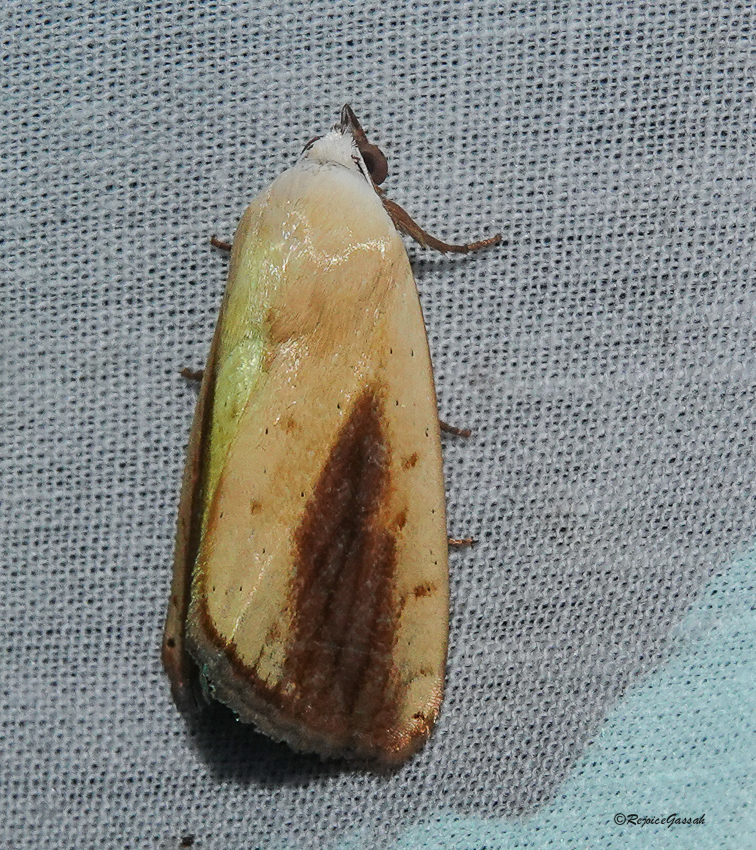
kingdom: Animalia
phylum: Arthropoda
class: Insecta
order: Lepidoptera
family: Nolidae
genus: Xanthodes
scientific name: Xanthodes intersepta
